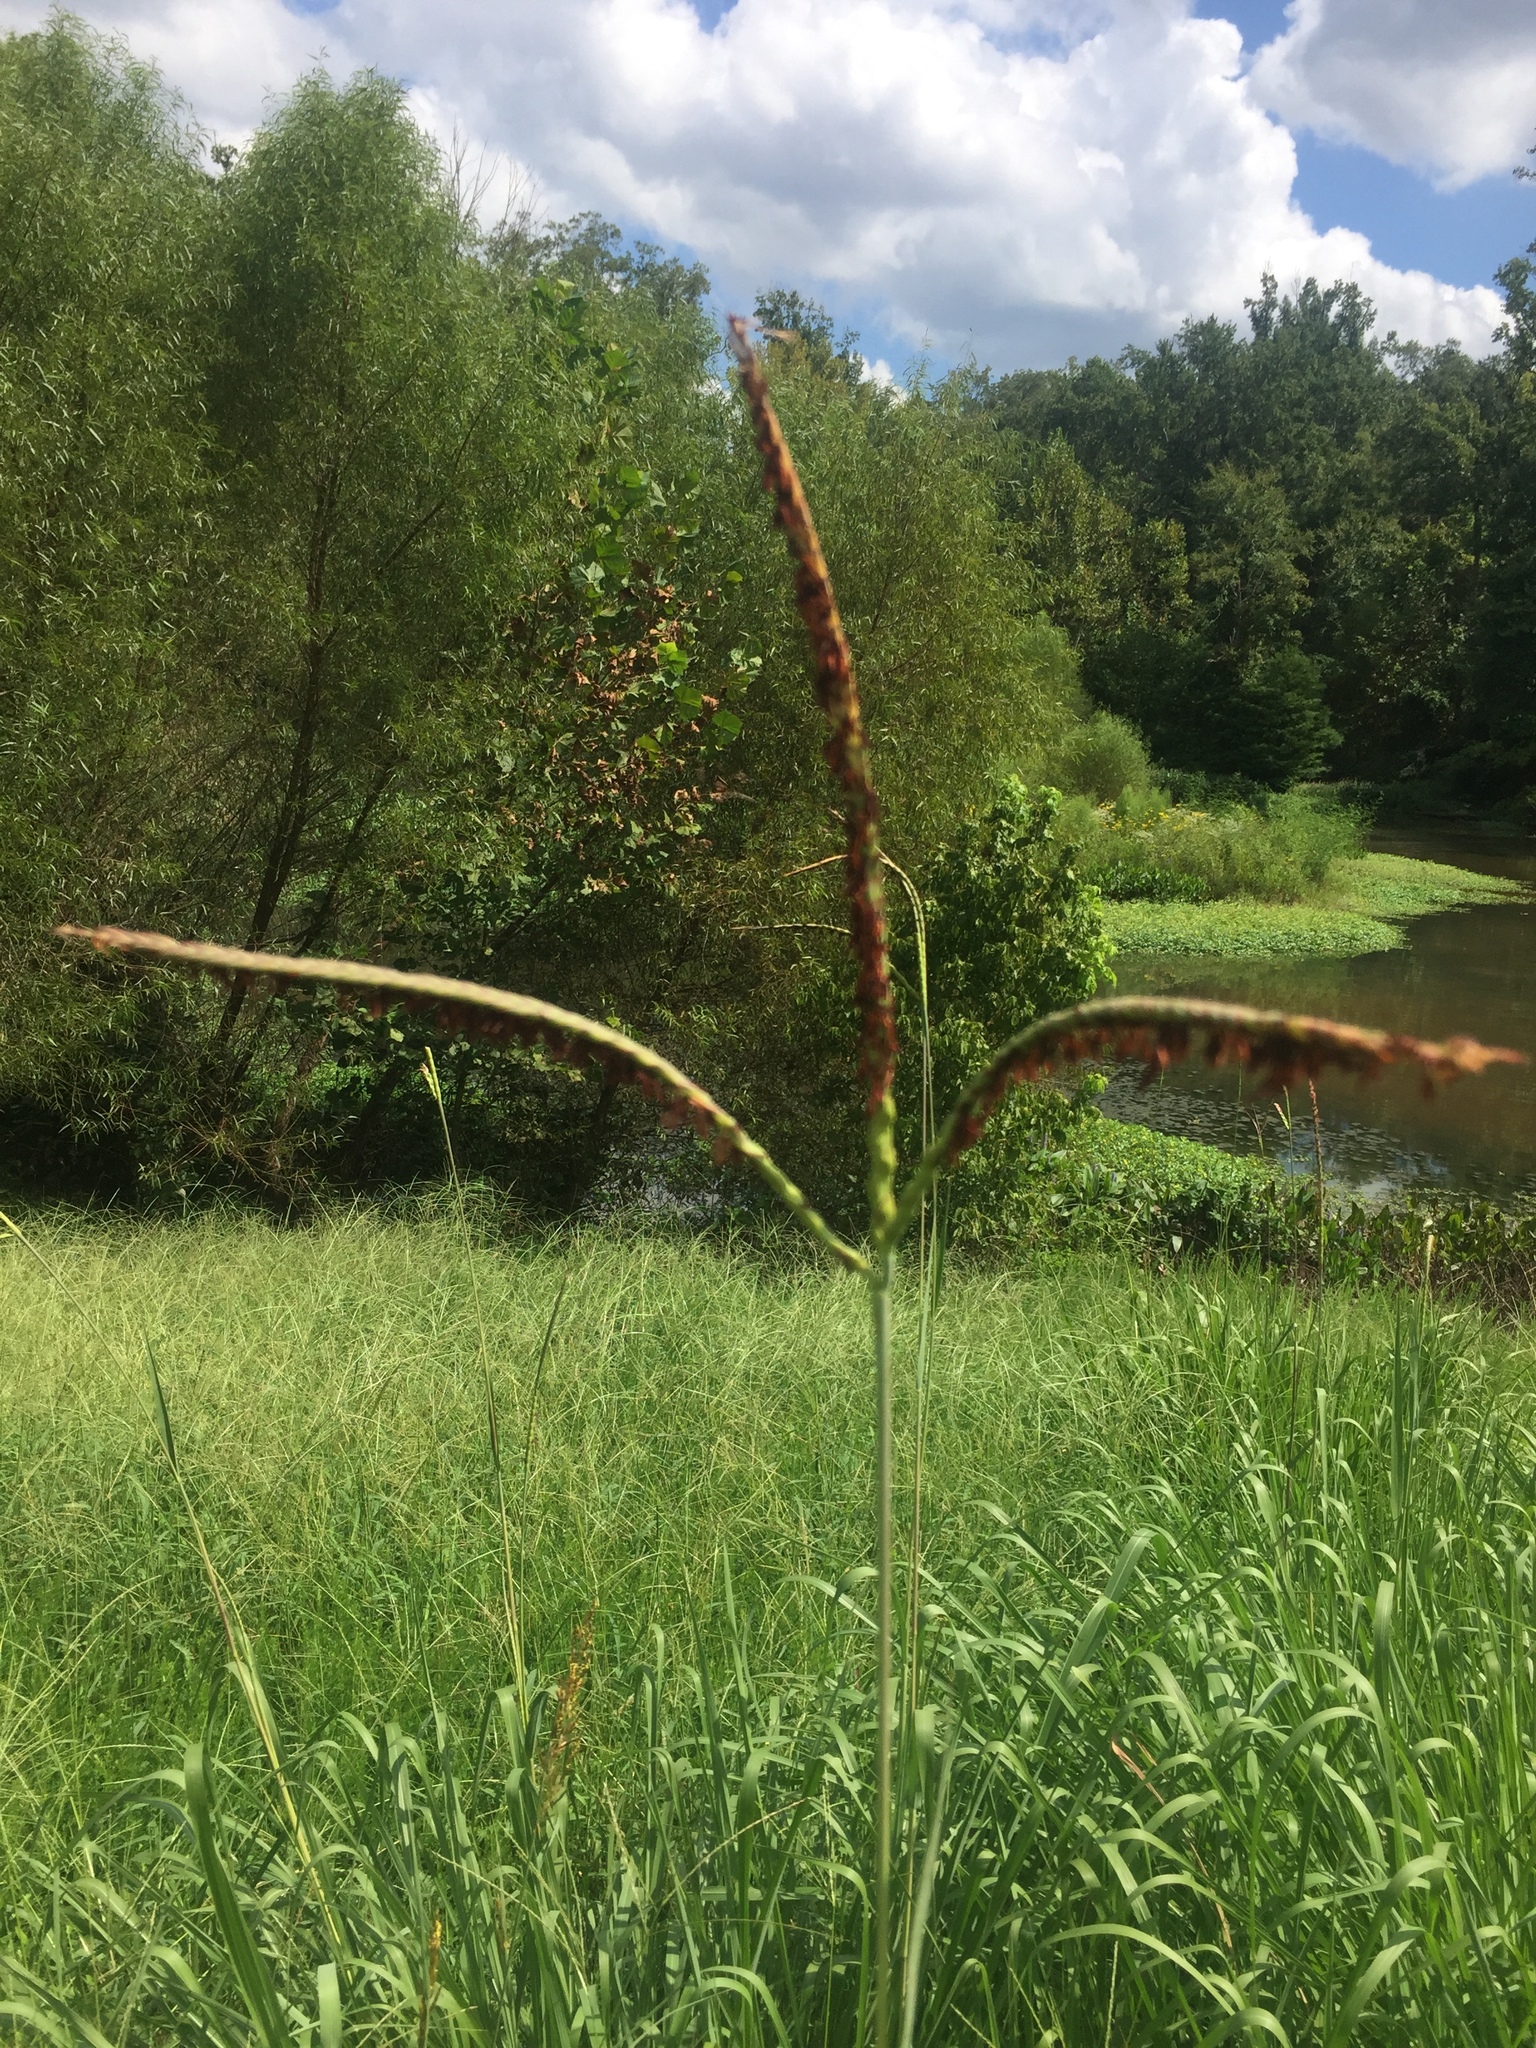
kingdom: Plantae
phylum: Tracheophyta
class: Liliopsida
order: Poales
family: Poaceae
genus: Tripsacum
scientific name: Tripsacum dactyloides
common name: Buffalo-grass
